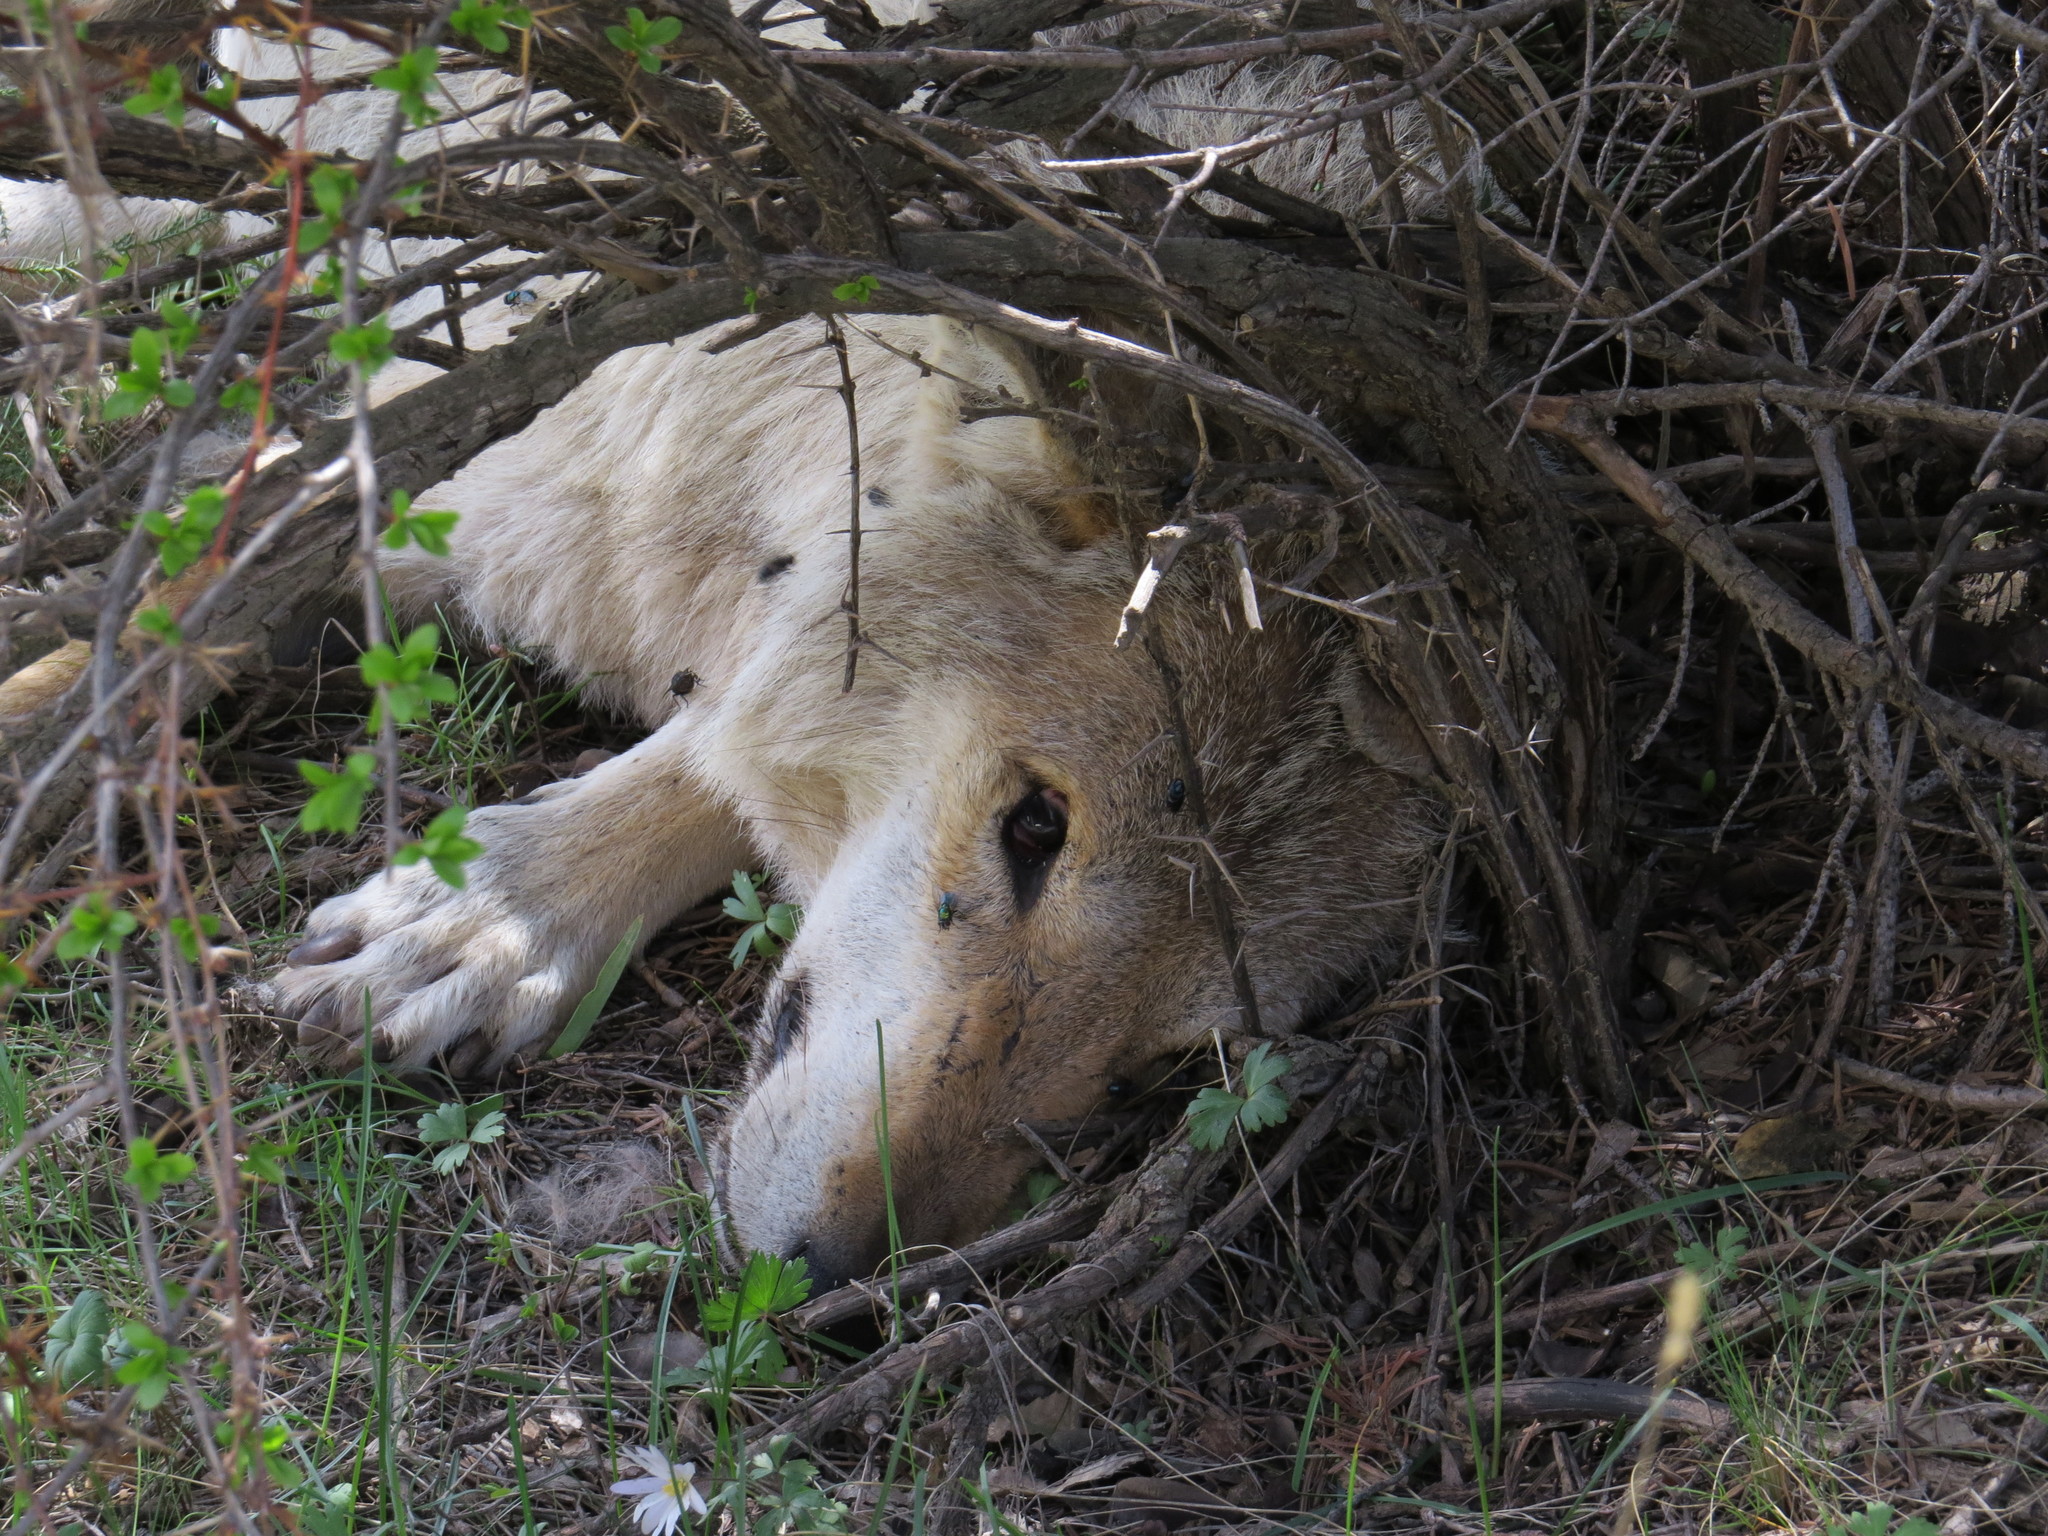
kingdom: Animalia
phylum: Chordata
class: Mammalia
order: Carnivora
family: Canidae
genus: Canis
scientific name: Canis lupus
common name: Gray wolf
